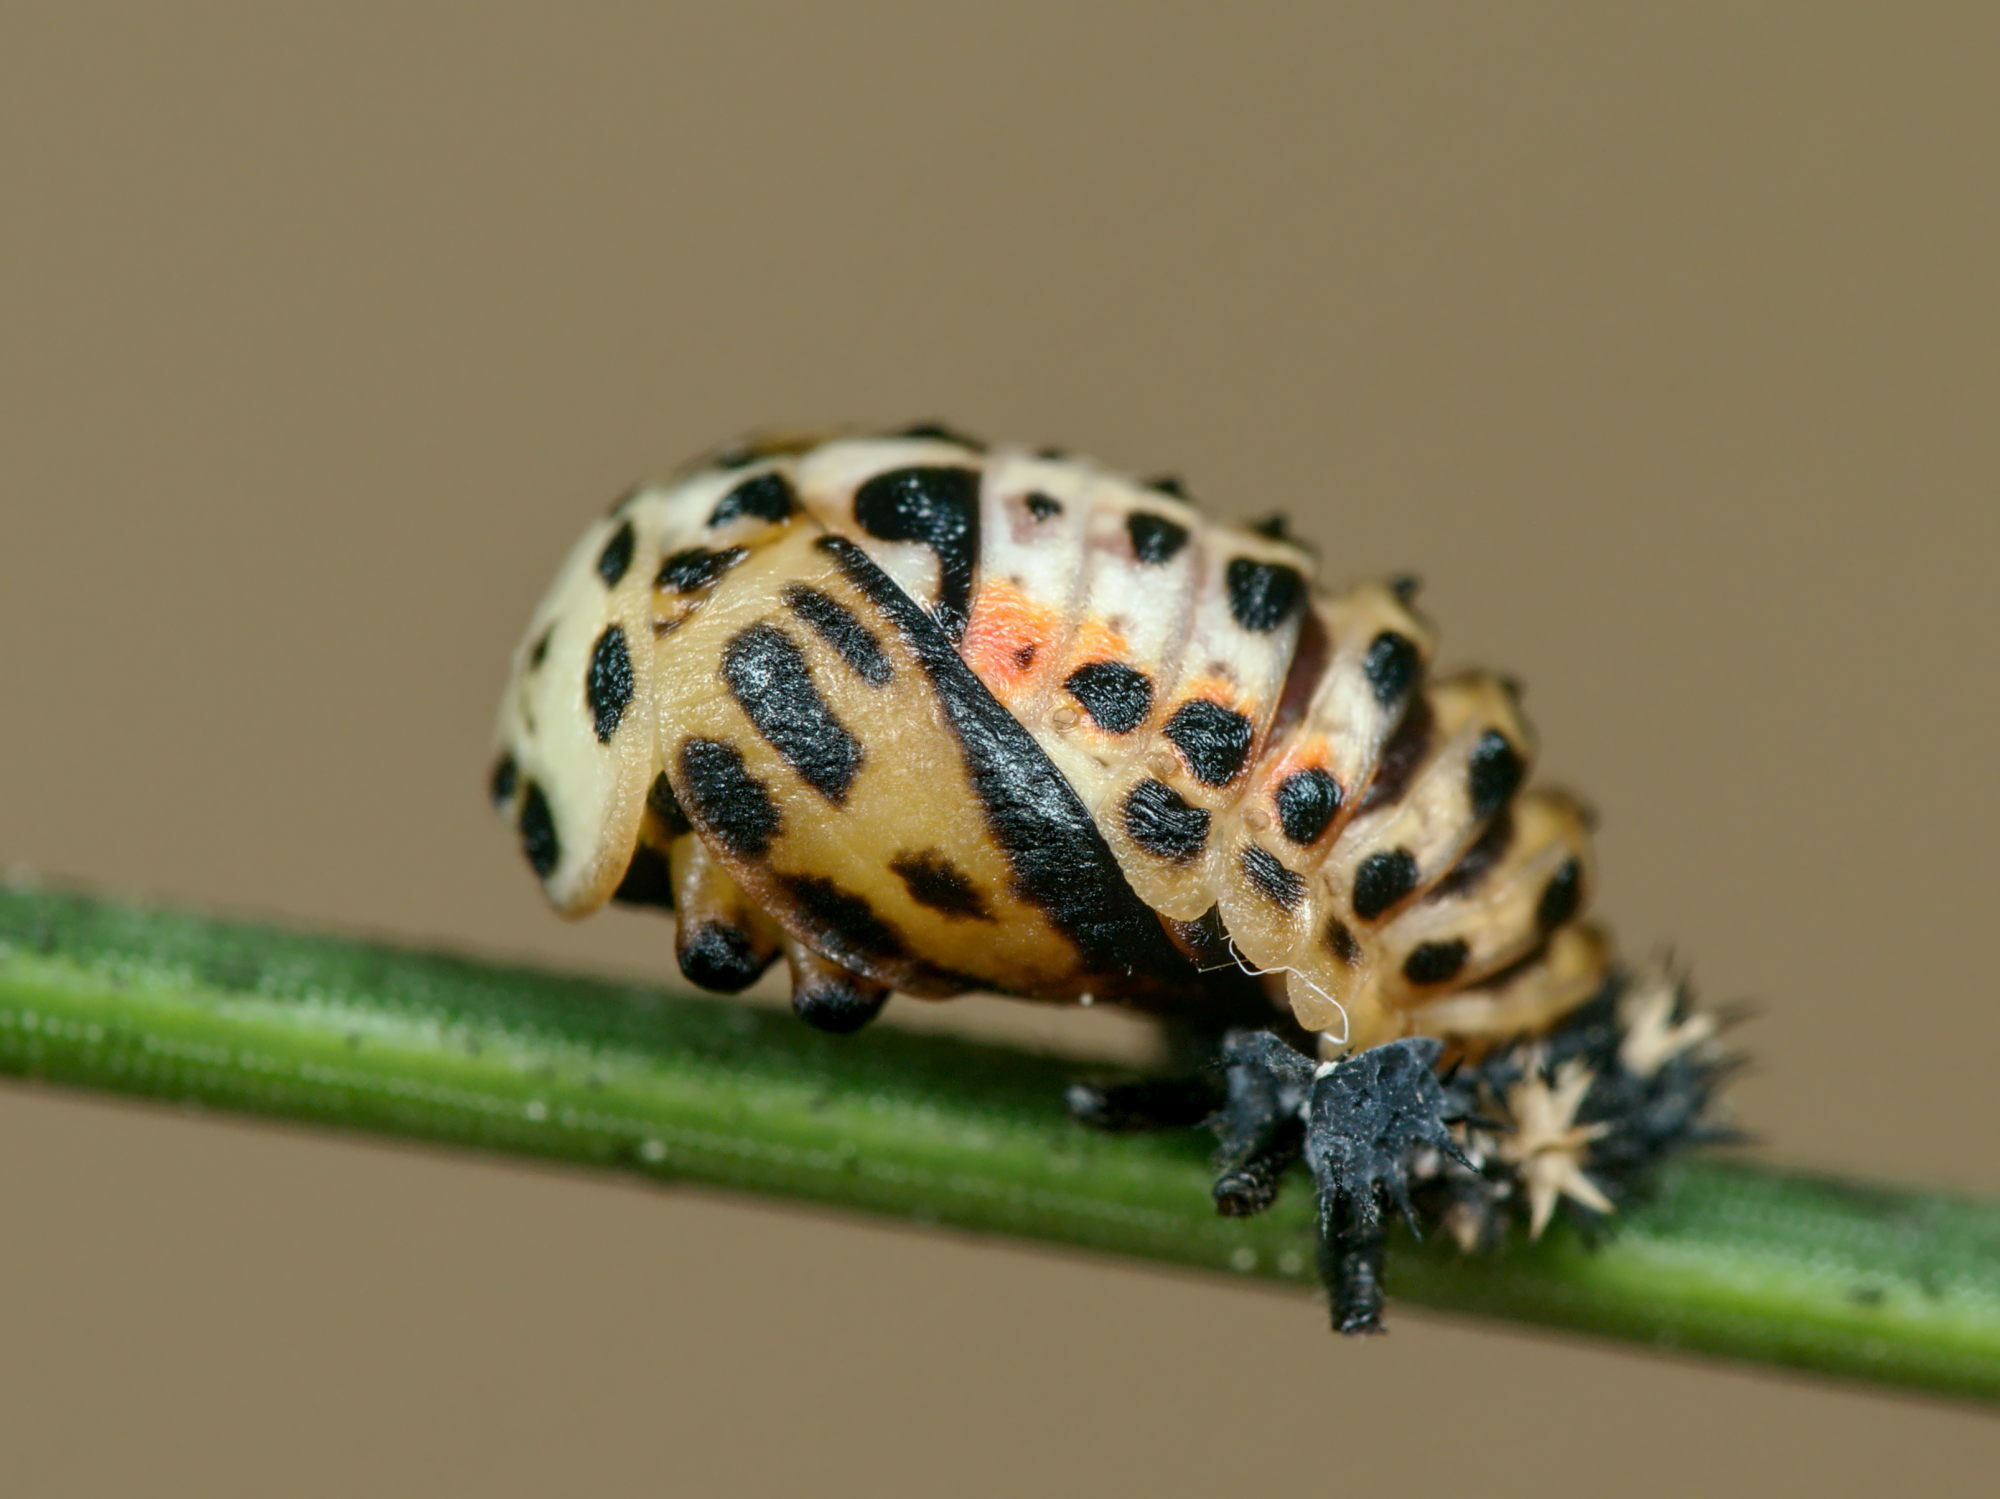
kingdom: Animalia
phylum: Arthropoda
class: Insecta
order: Coleoptera
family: Coccinellidae
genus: Harmonia
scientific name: Harmonia quadripunctata
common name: Cream-streaked ladybird
